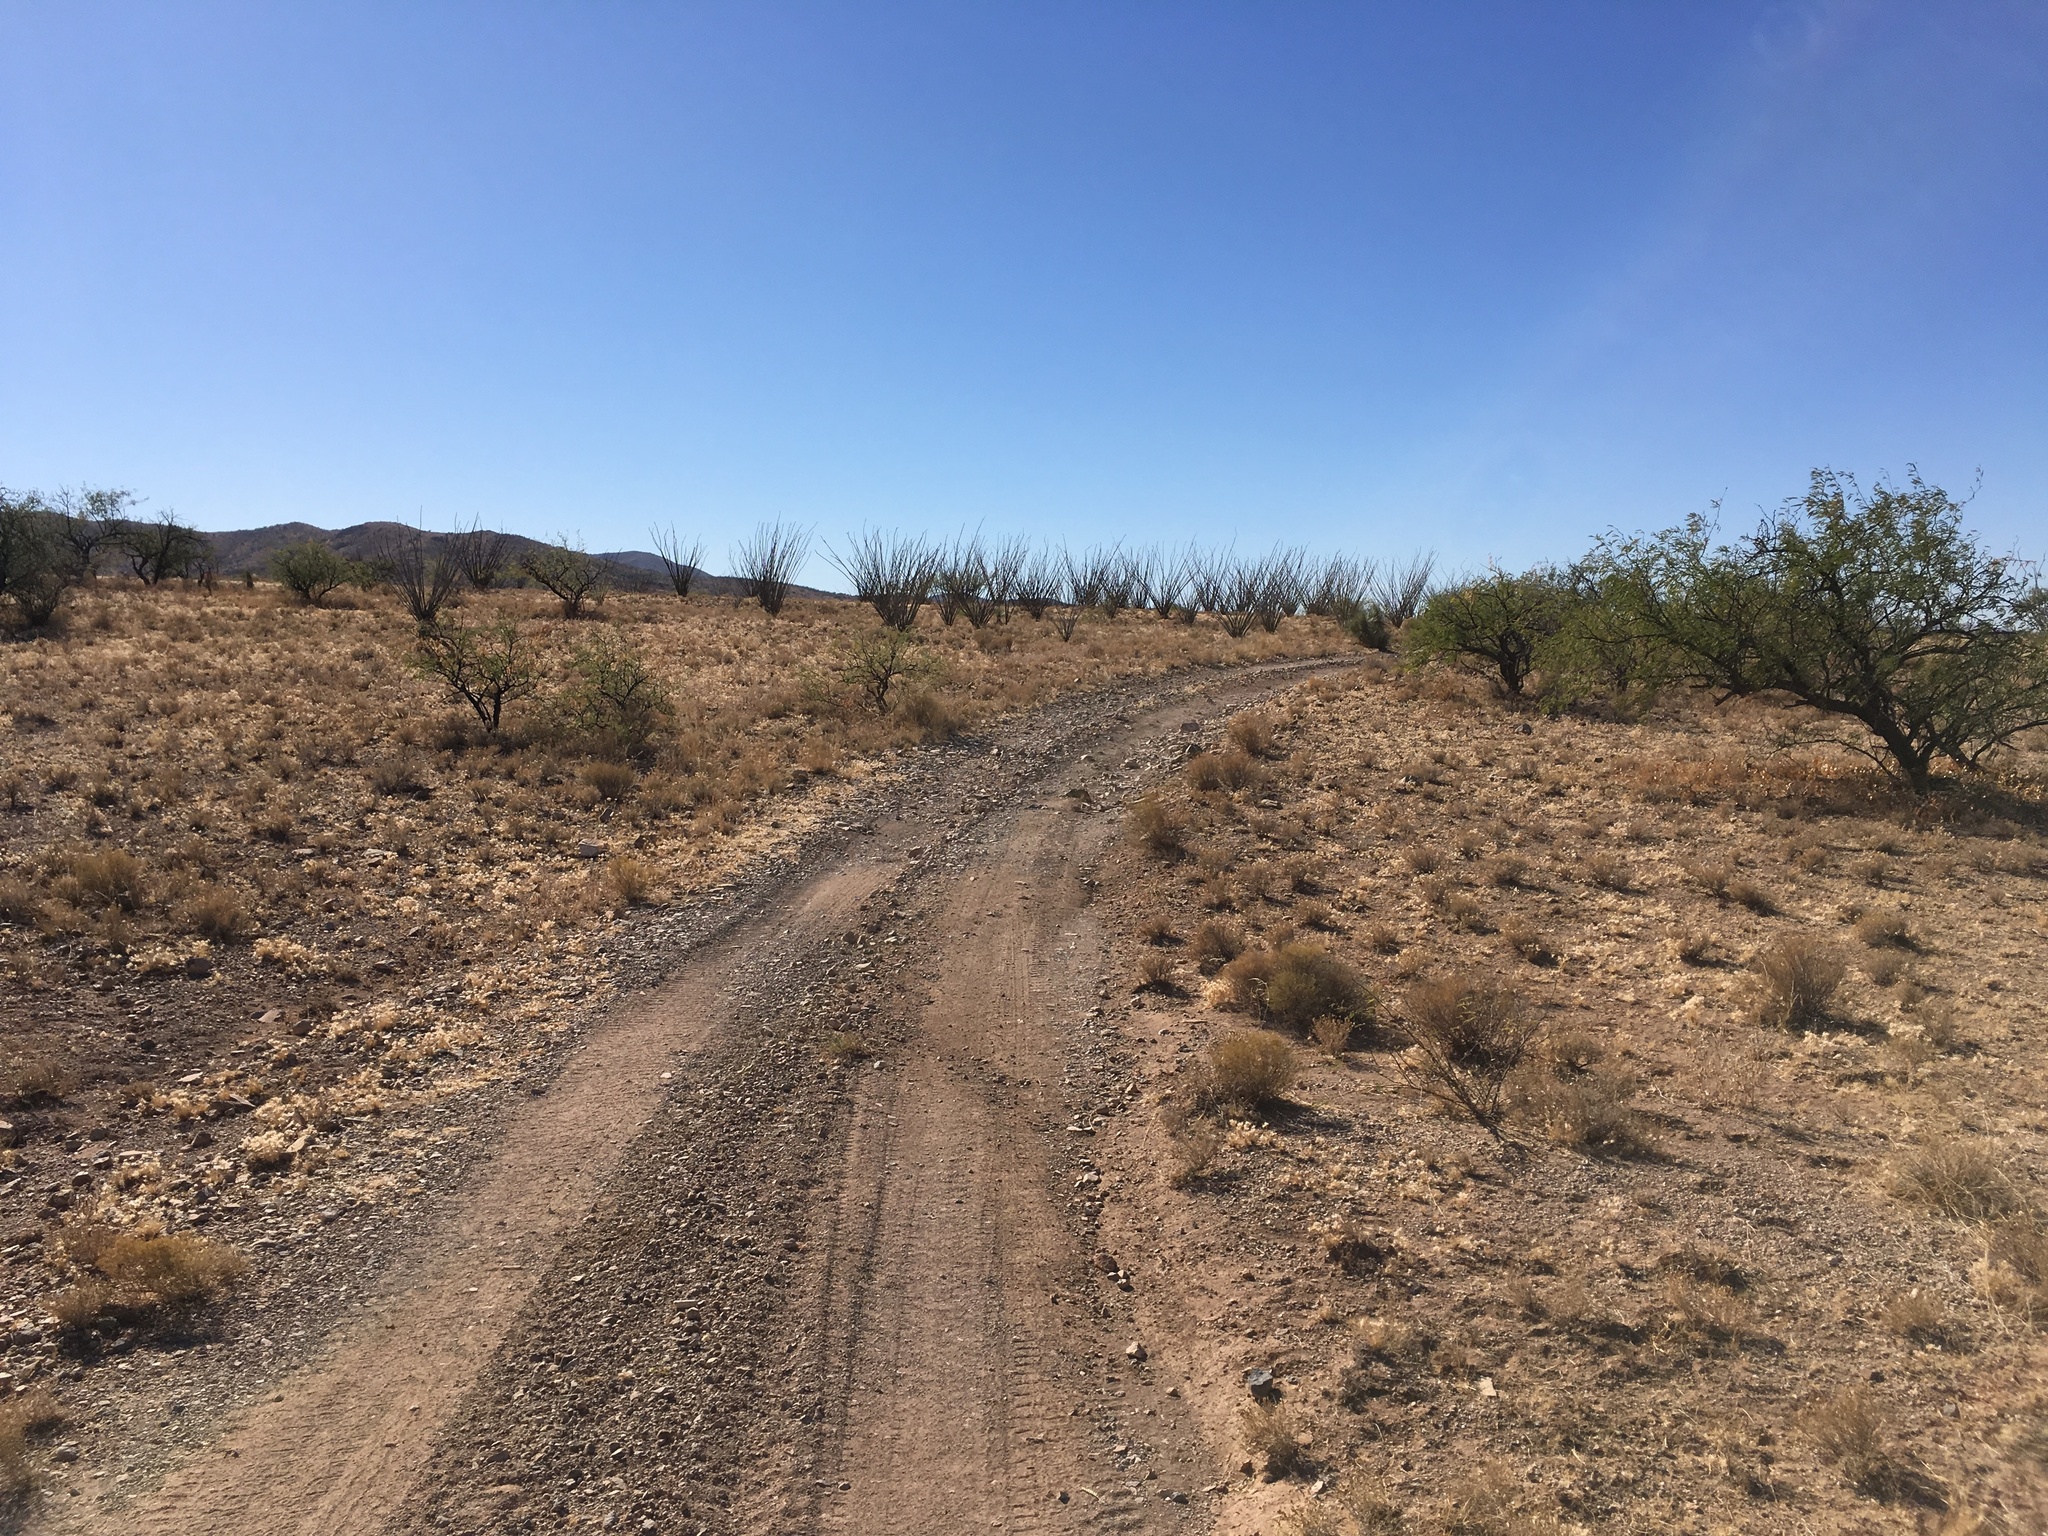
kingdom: Plantae
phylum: Tracheophyta
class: Magnoliopsida
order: Ericales
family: Fouquieriaceae
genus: Fouquieria
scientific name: Fouquieria splendens
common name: Vine-cactus
